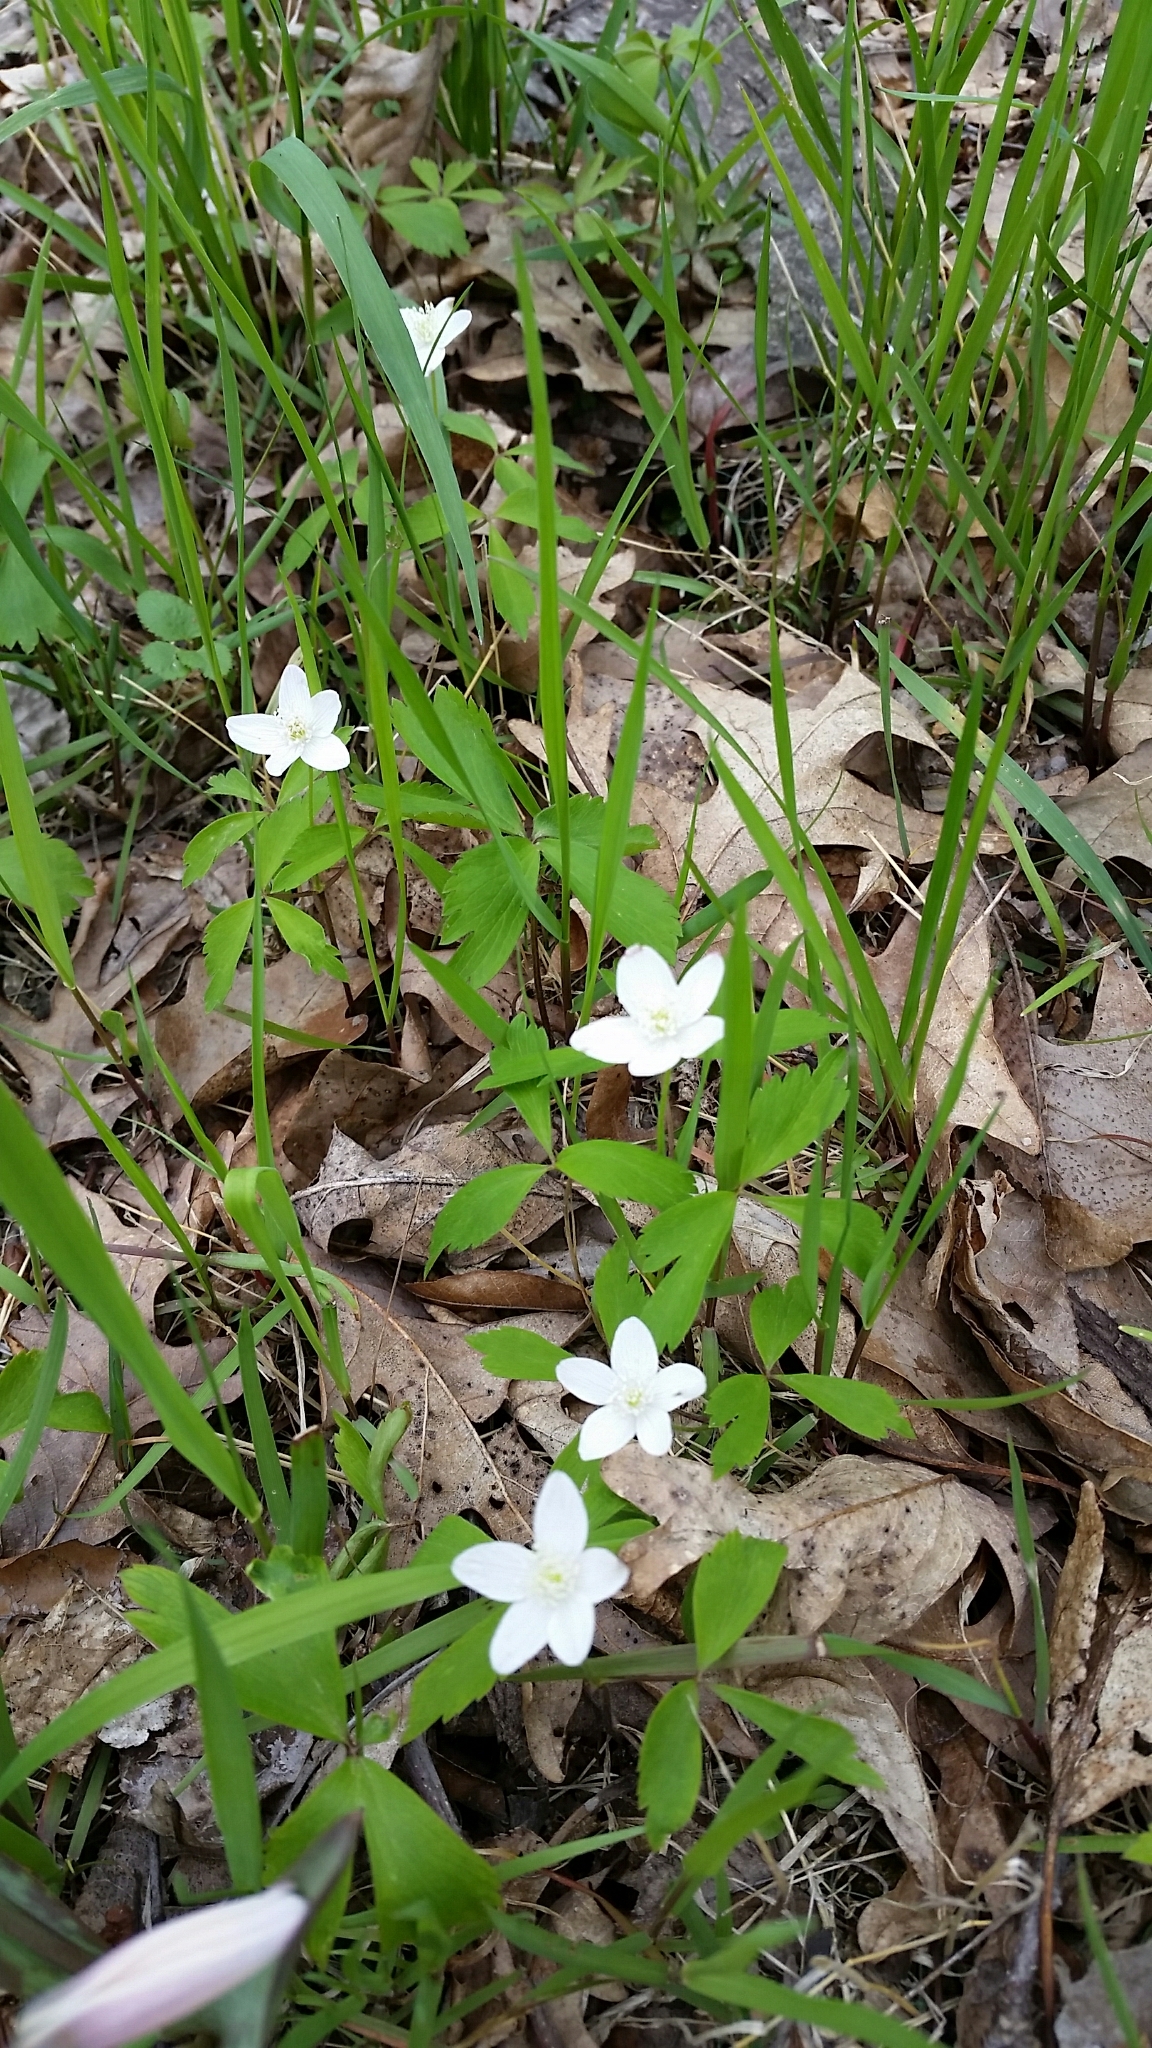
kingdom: Plantae
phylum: Tracheophyta
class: Magnoliopsida
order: Ranunculales
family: Ranunculaceae
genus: Anemone
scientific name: Anemone quinquefolia
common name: Wood anemone
